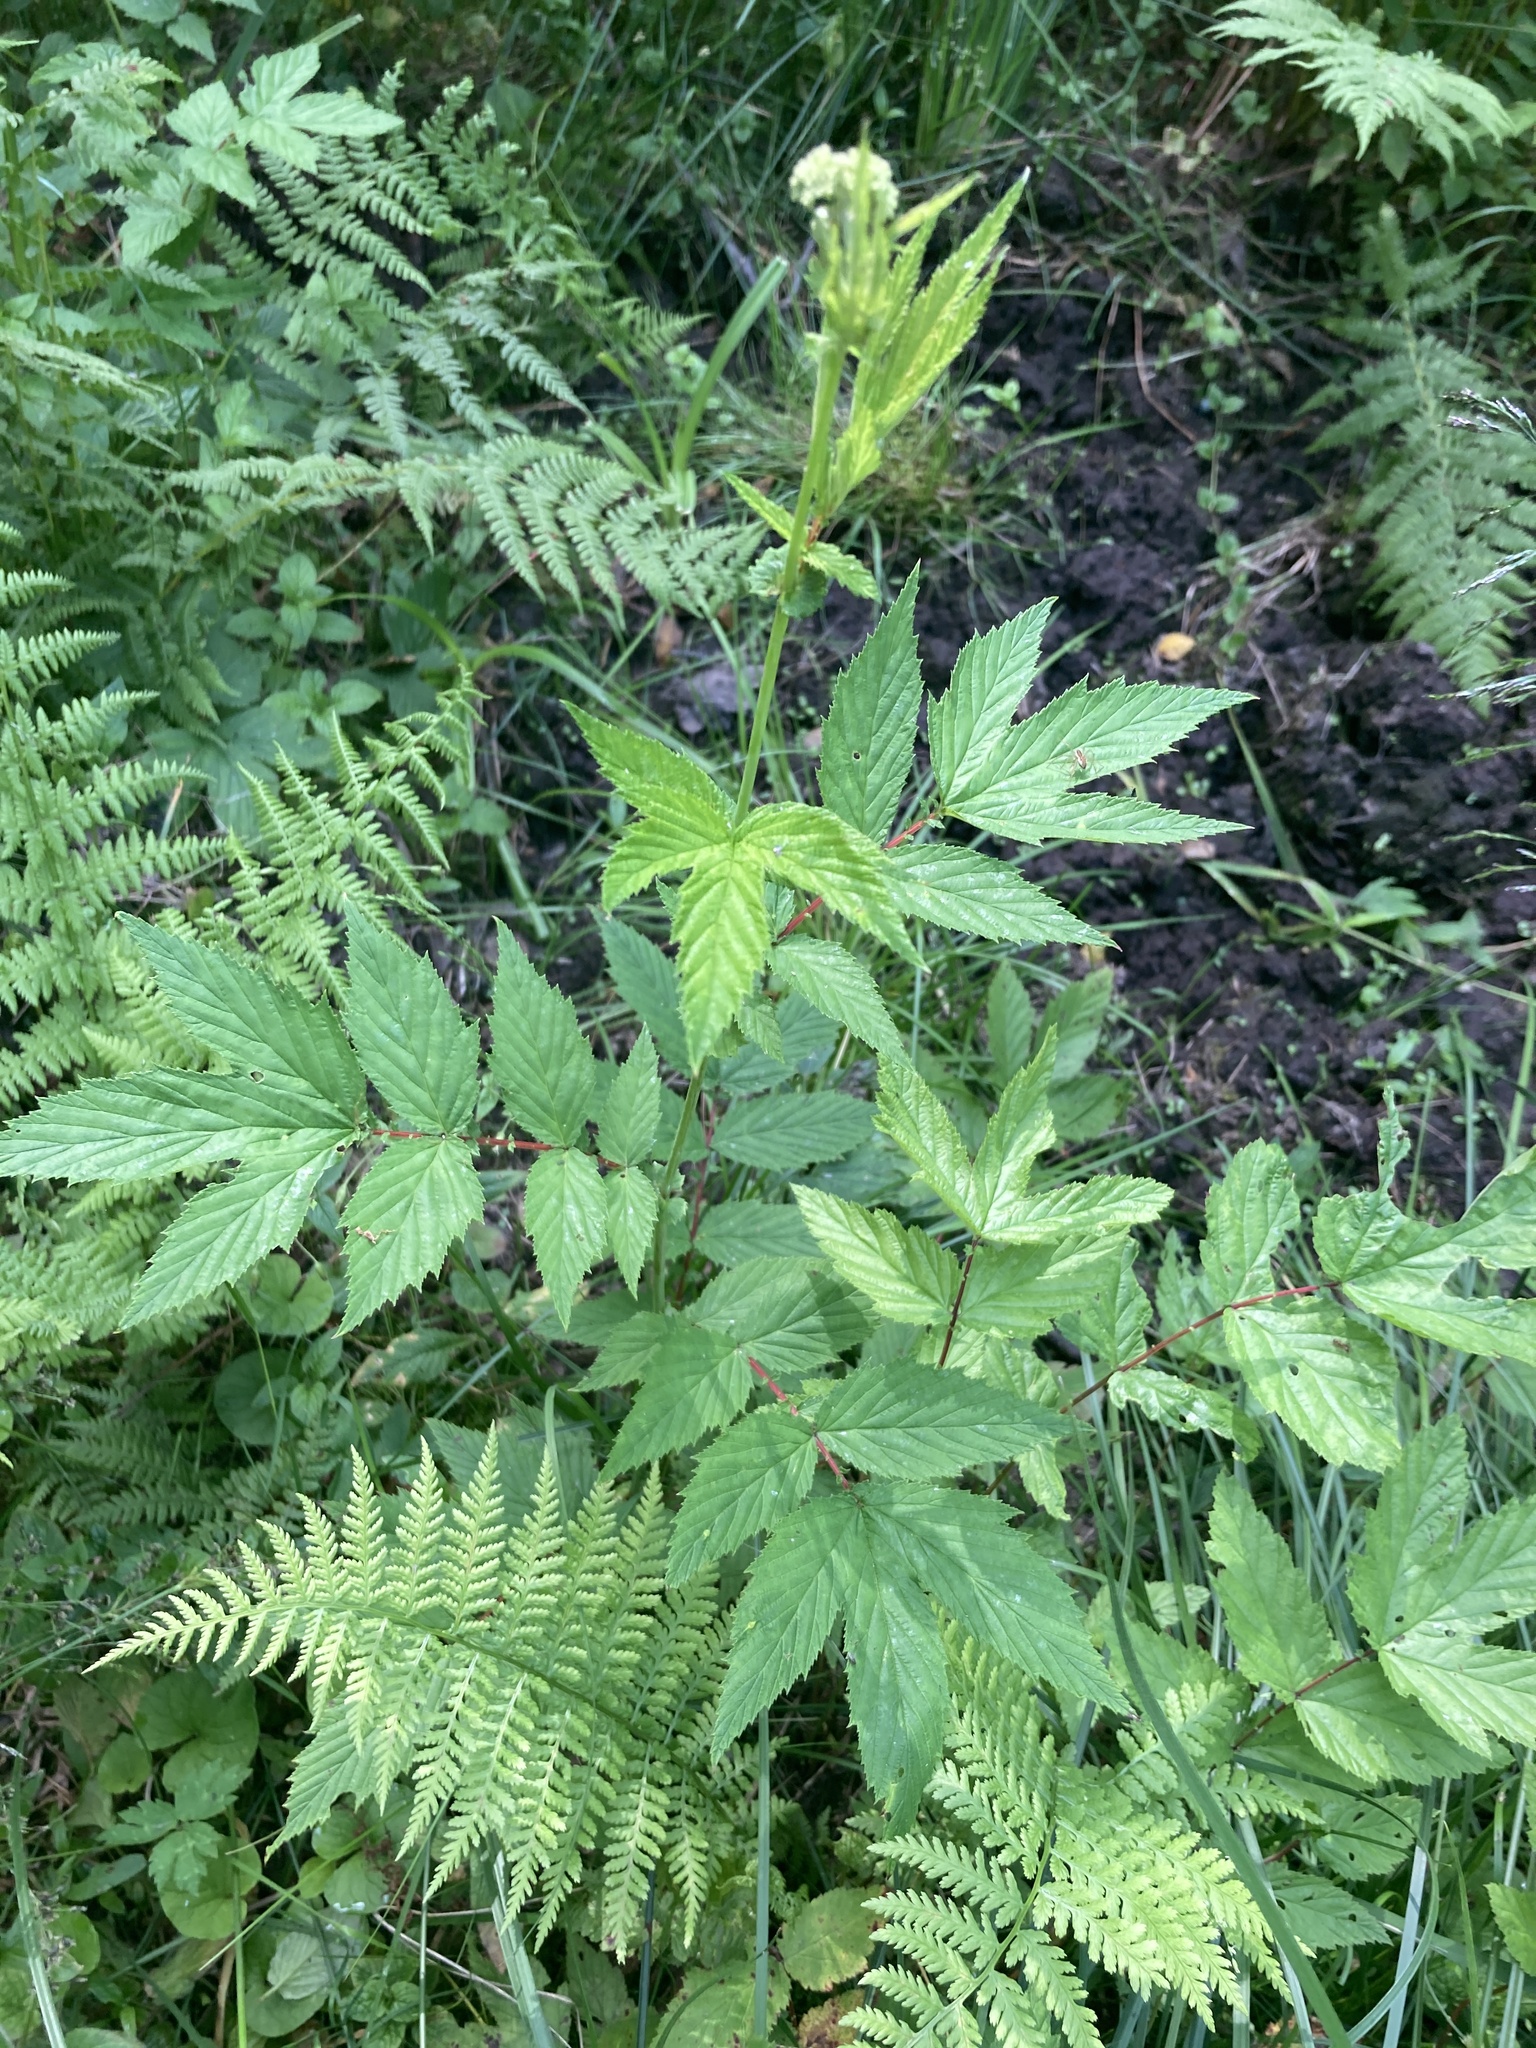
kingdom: Plantae
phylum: Tracheophyta
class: Magnoliopsida
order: Rosales
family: Rosaceae
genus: Filipendula
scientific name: Filipendula ulmaria
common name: Meadowsweet
